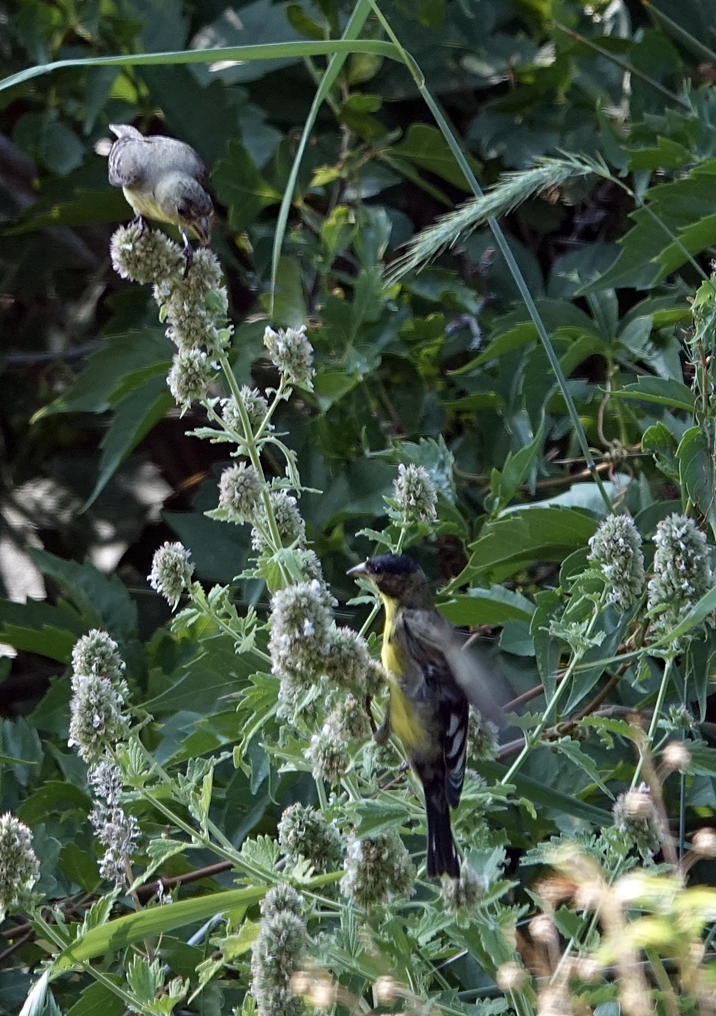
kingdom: Animalia
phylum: Chordata
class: Aves
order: Passeriformes
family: Fringillidae
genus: Spinus
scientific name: Spinus psaltria
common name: Lesser goldfinch
